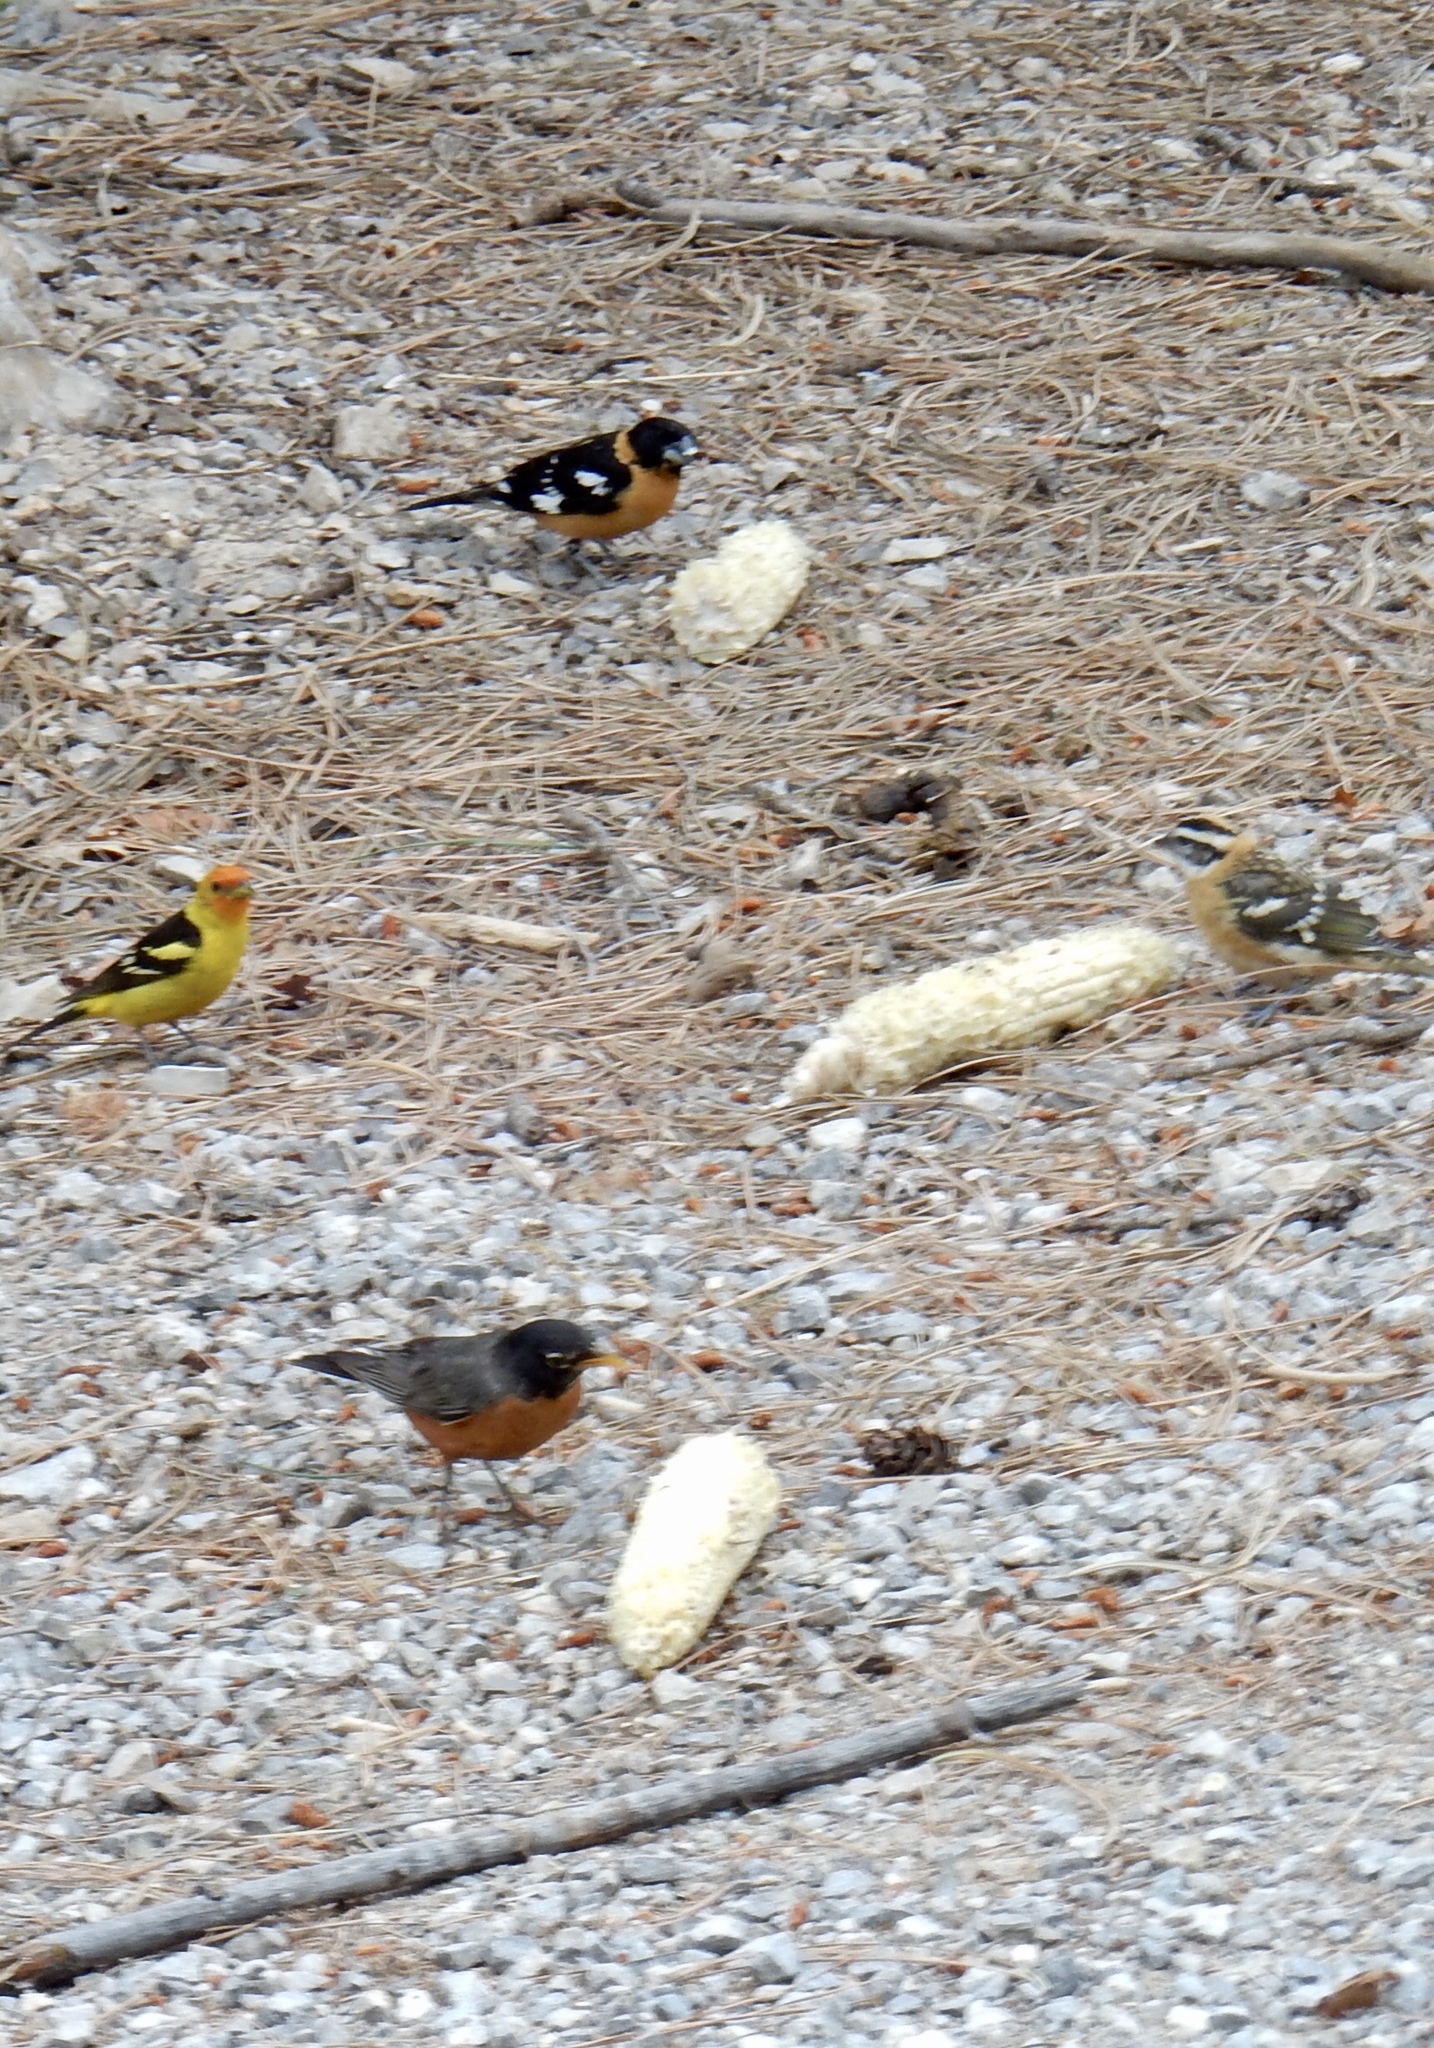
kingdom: Animalia
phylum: Chordata
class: Aves
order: Passeriformes
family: Cardinalidae
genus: Pheucticus
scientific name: Pheucticus melanocephalus
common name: Black-headed grosbeak
